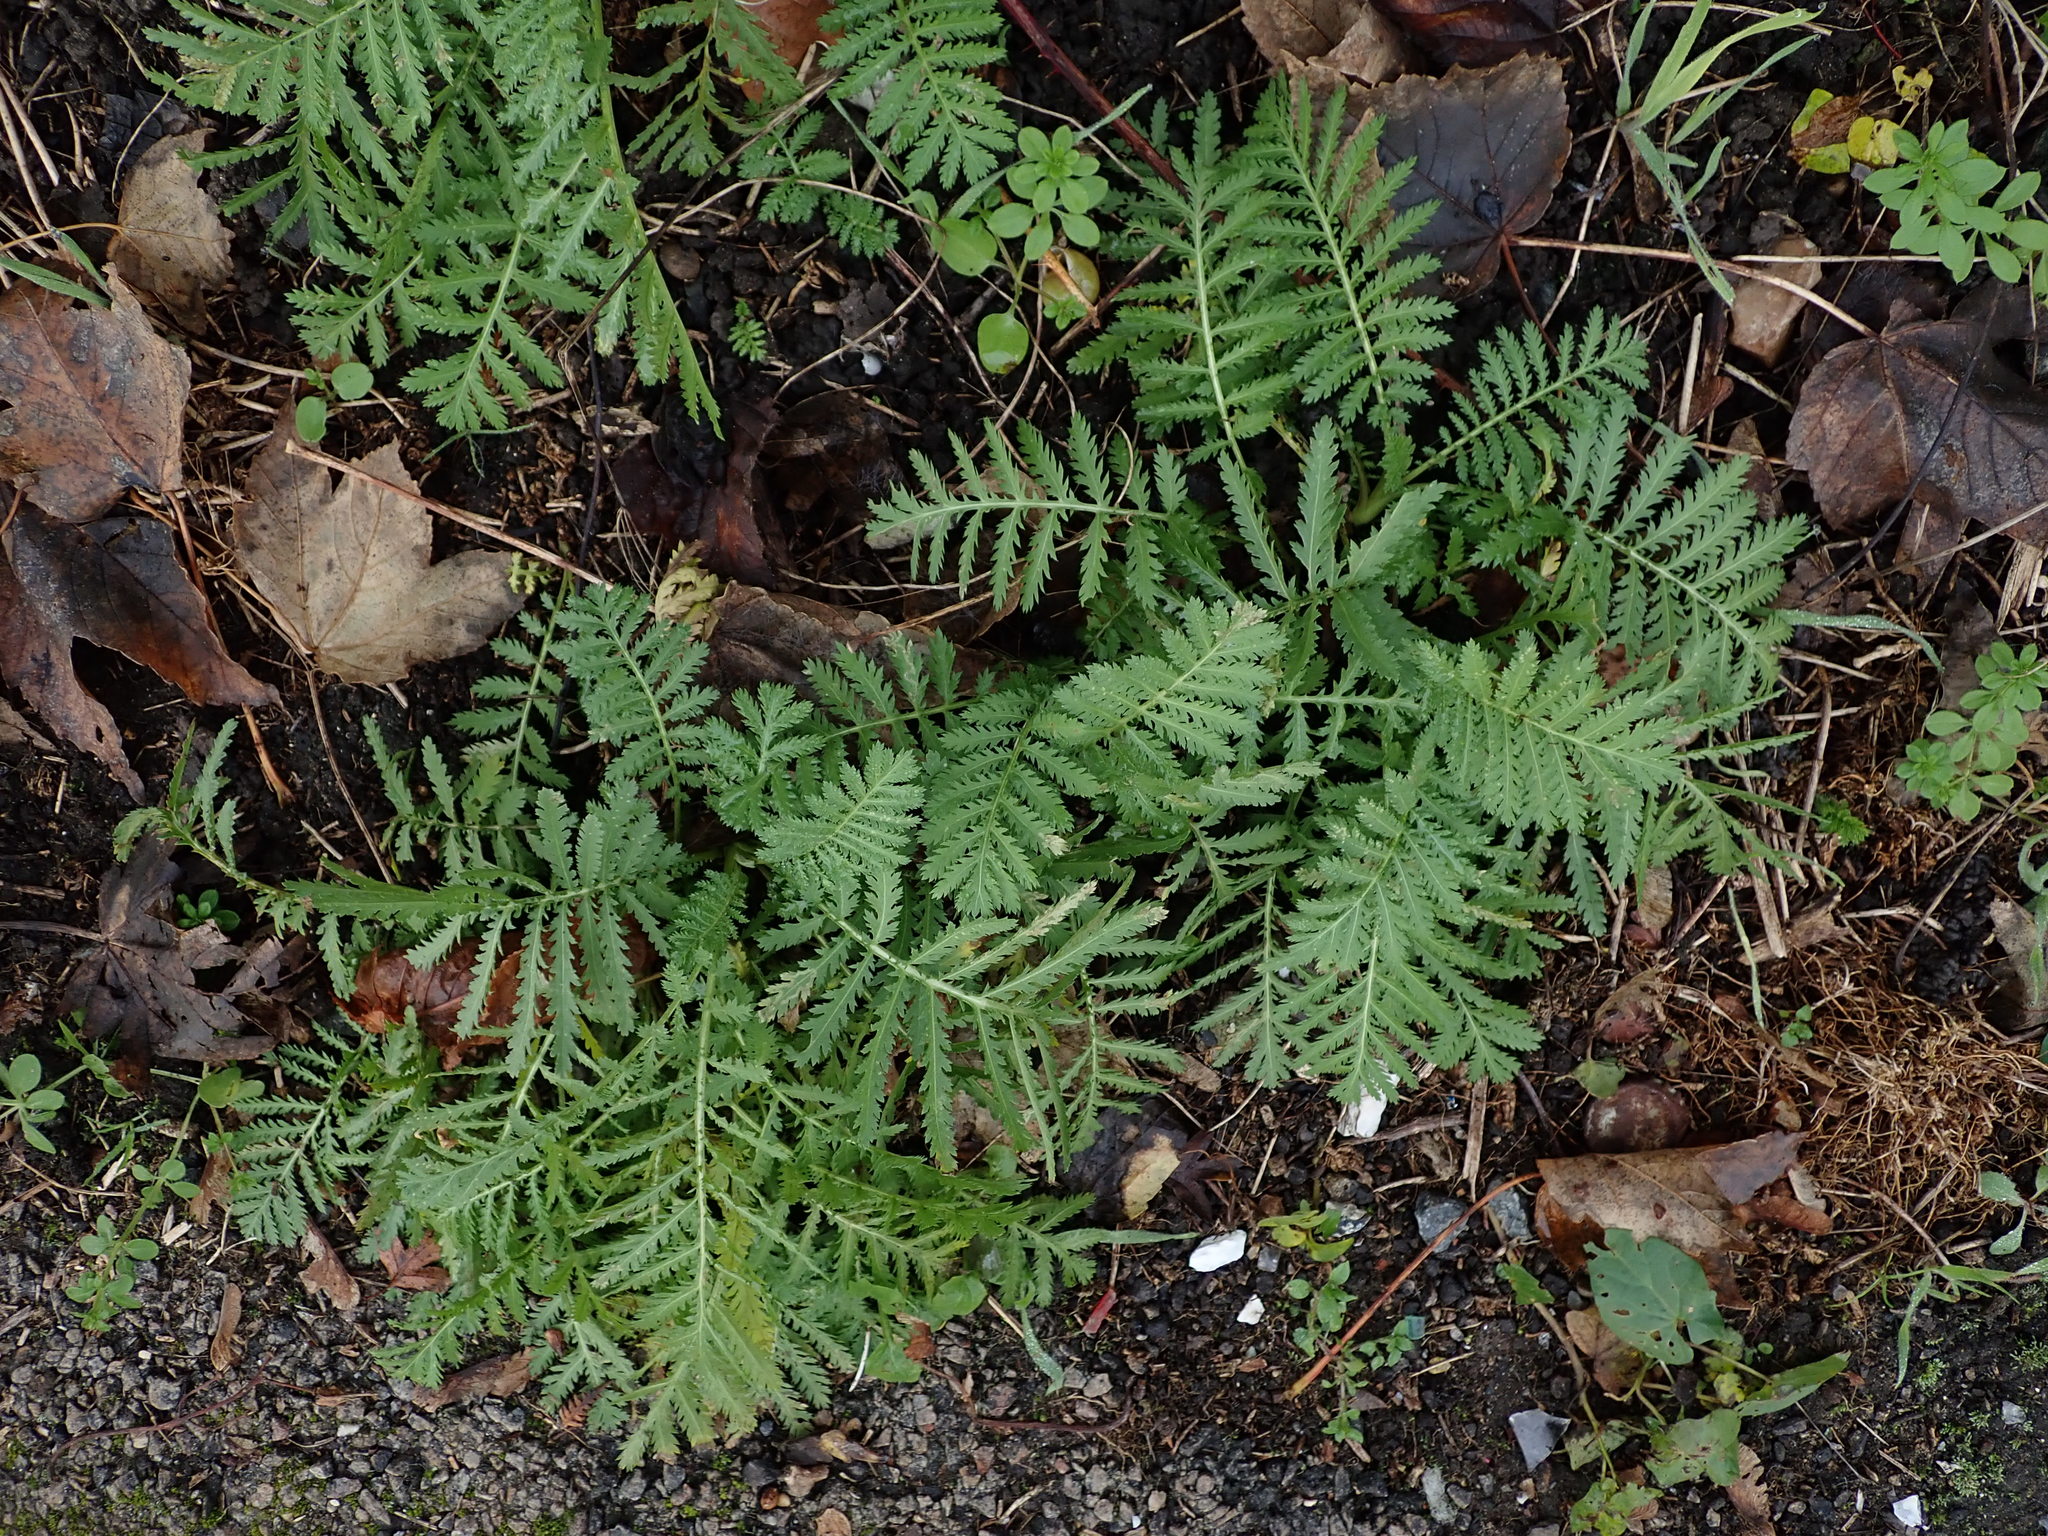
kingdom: Plantae
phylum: Tracheophyta
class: Magnoliopsida
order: Asterales
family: Asteraceae
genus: Tanacetum
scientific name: Tanacetum vulgare
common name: Common tansy
